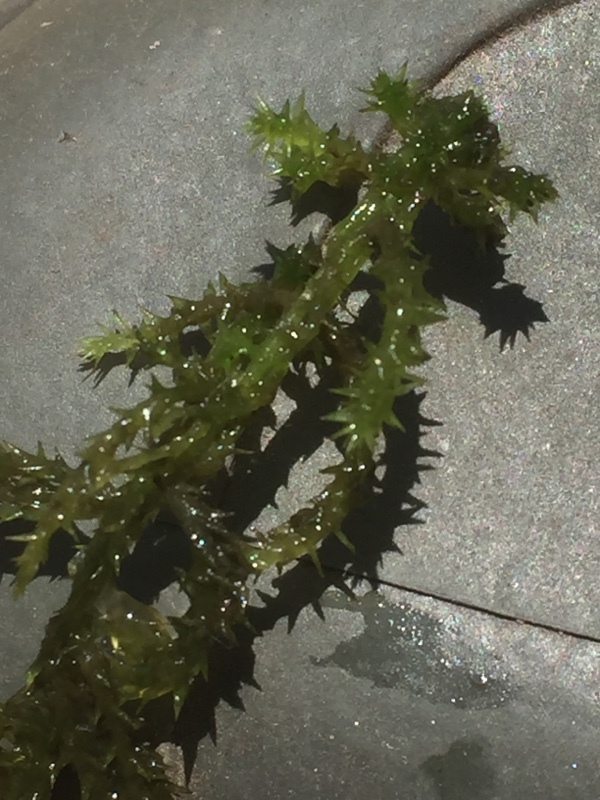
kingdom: Plantae
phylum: Bryophyta
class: Sphagnopsida
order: Sphagnales
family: Sphagnaceae
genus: Sphagnum
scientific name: Sphagnum squarrosum
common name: Shaggy peat moss
